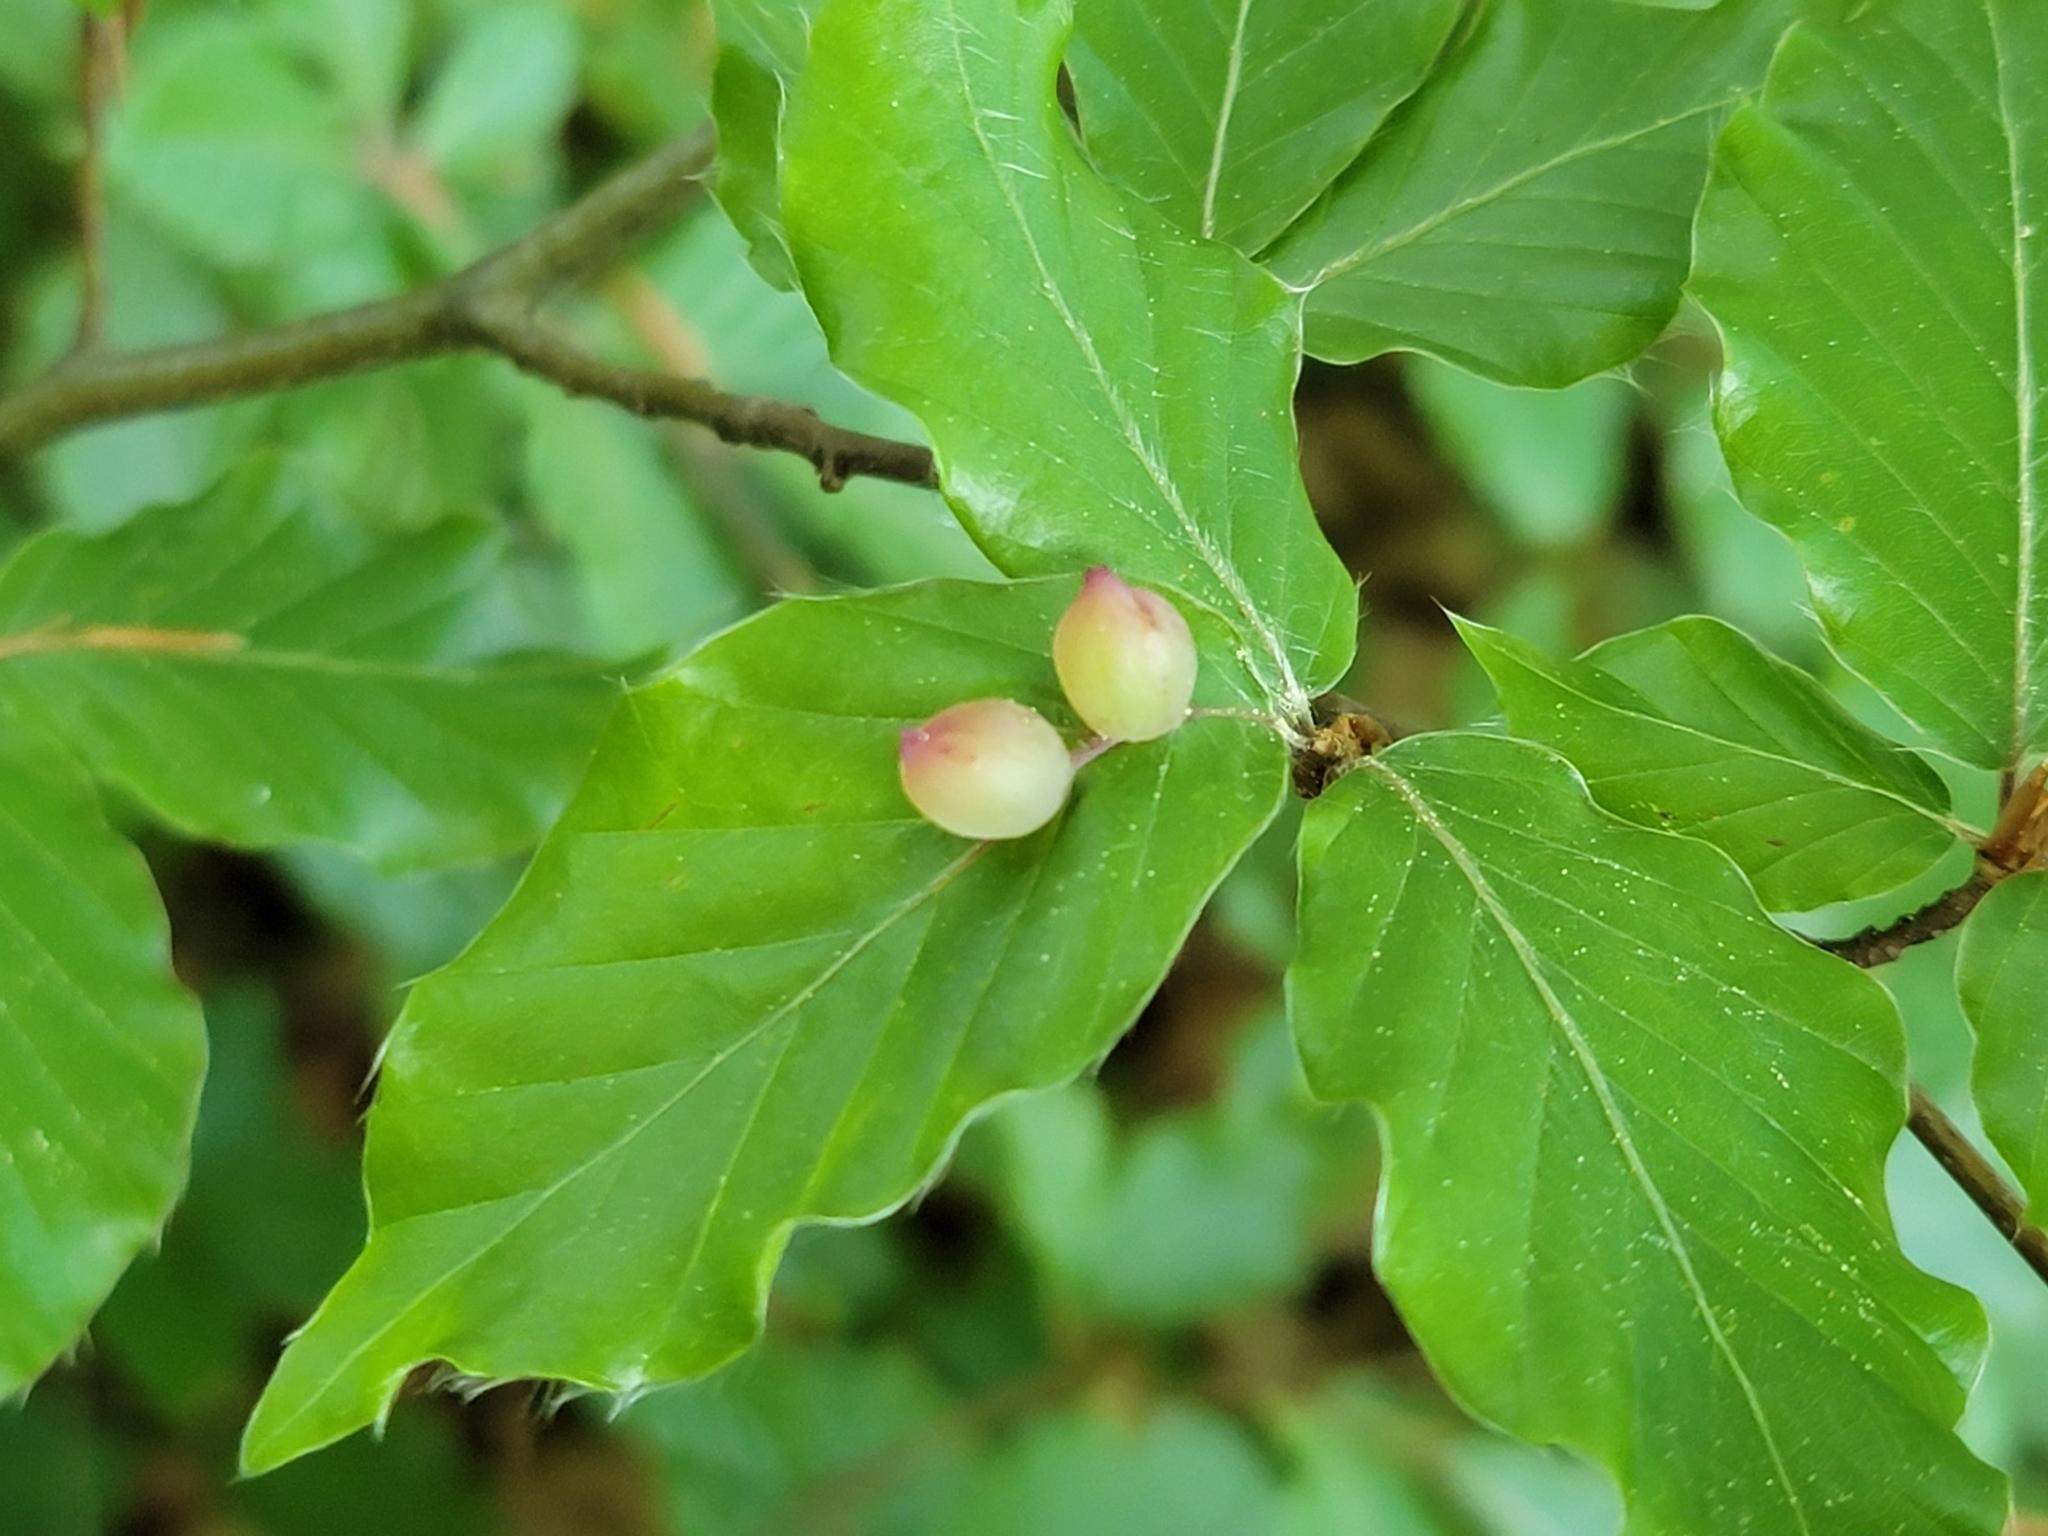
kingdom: Animalia
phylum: Arthropoda
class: Insecta
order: Diptera
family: Cecidomyiidae
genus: Mikiola
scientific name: Mikiola fagi
